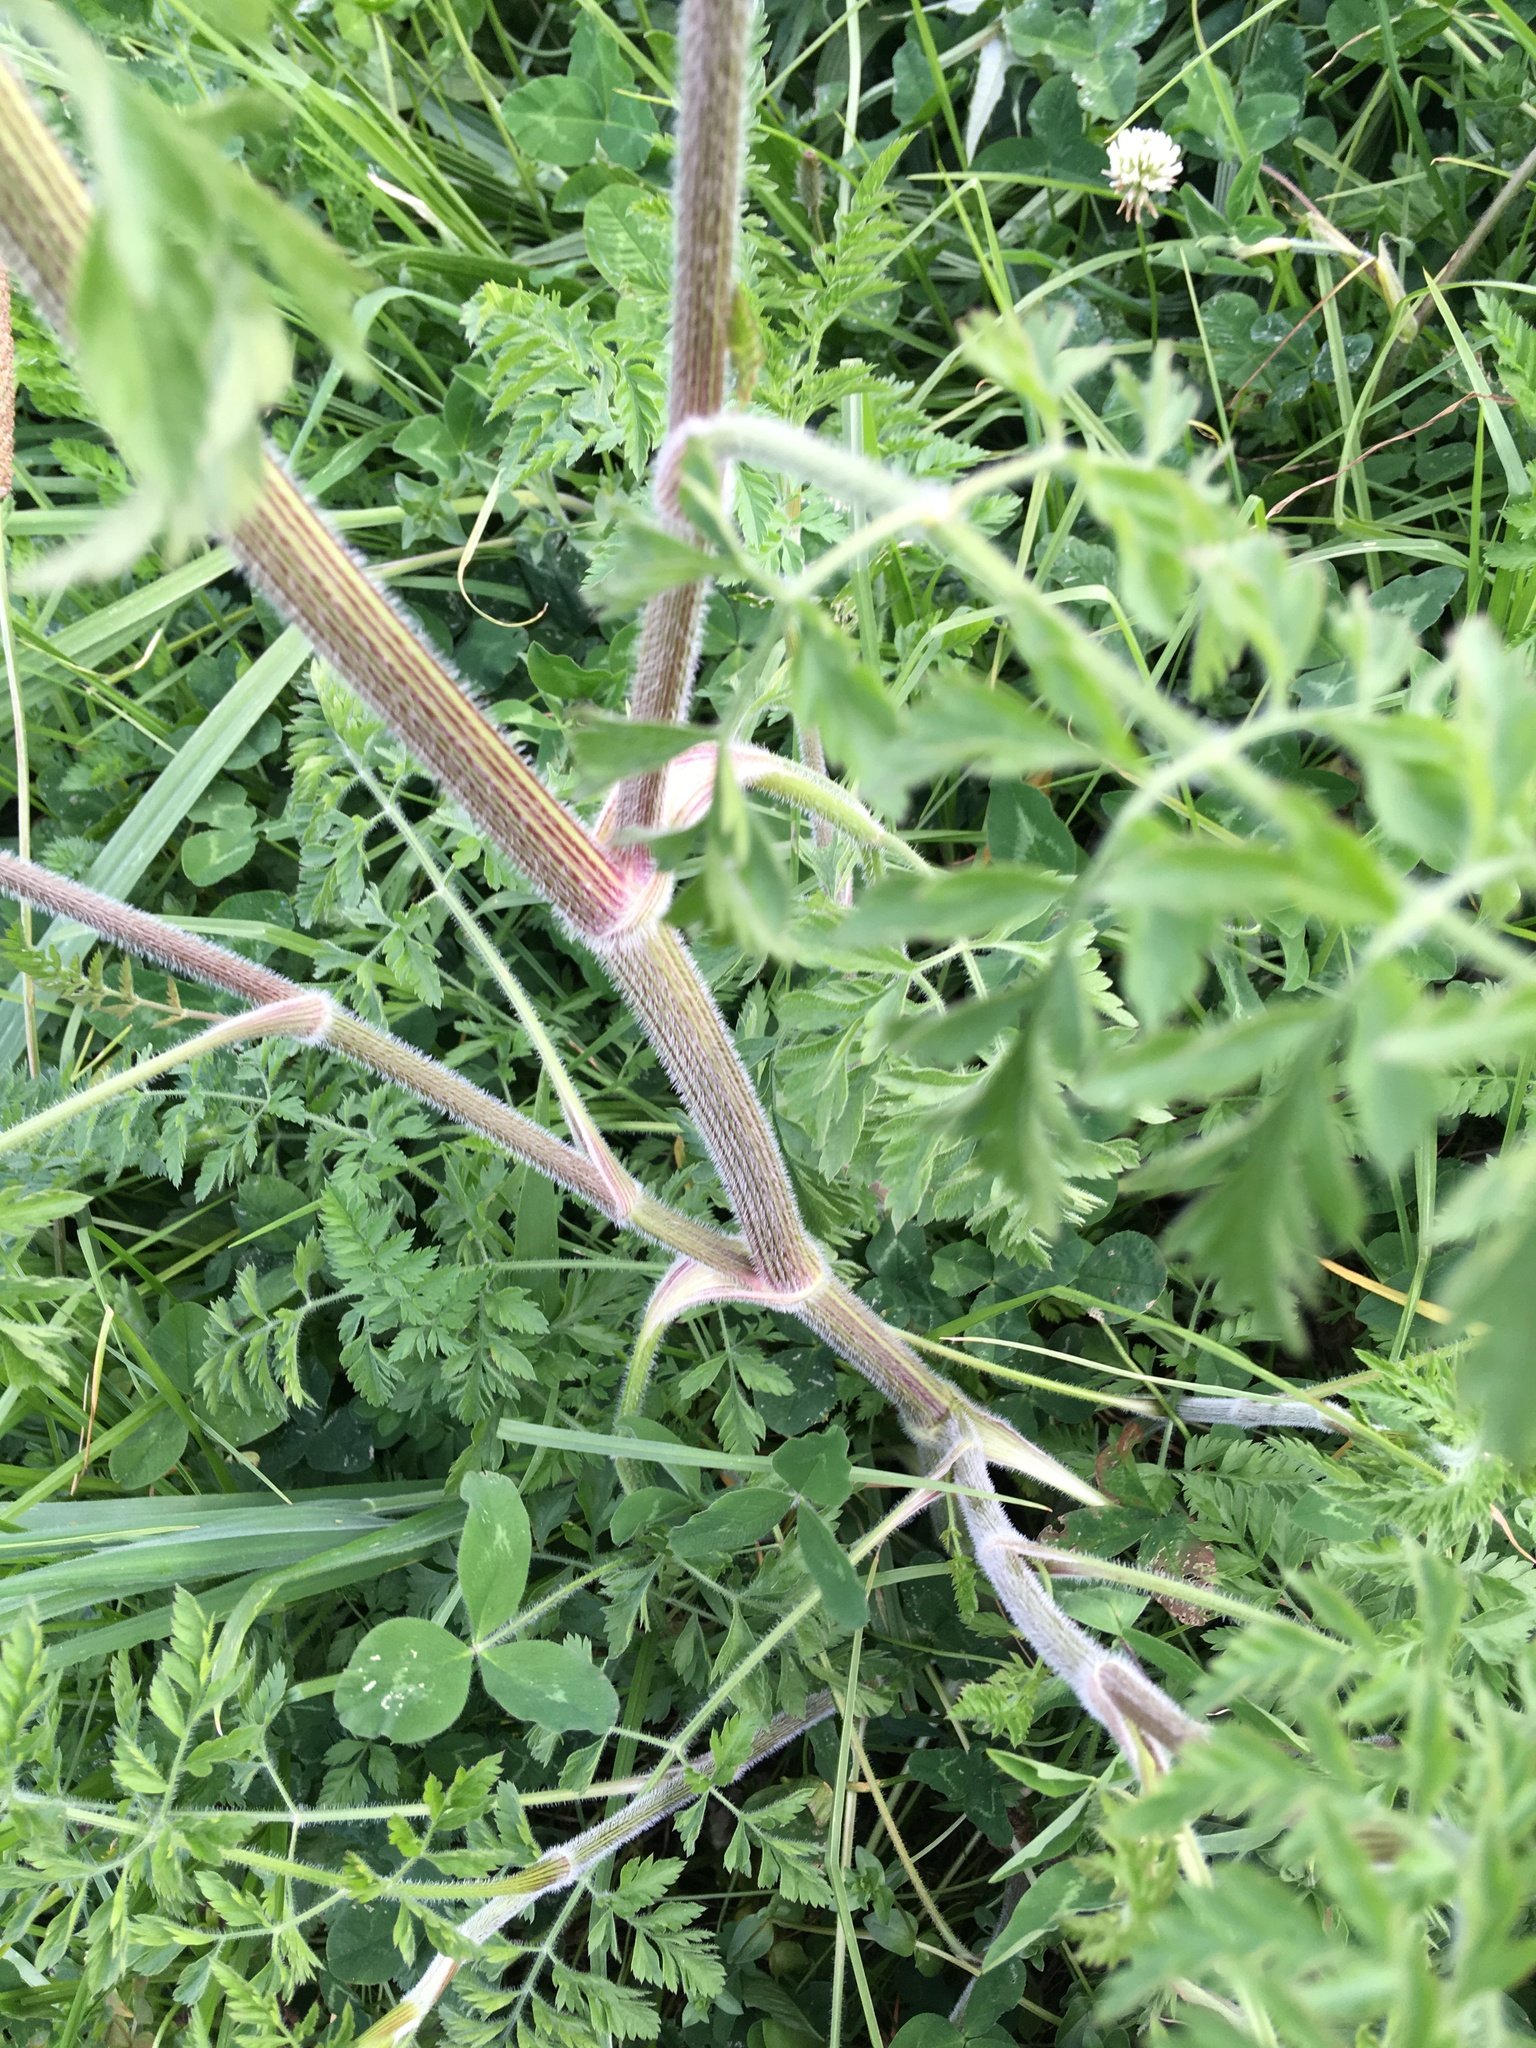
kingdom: Plantae
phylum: Tracheophyta
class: Magnoliopsida
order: Apiales
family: Apiaceae
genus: Daucus
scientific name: Daucus carota
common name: Wild carrot
